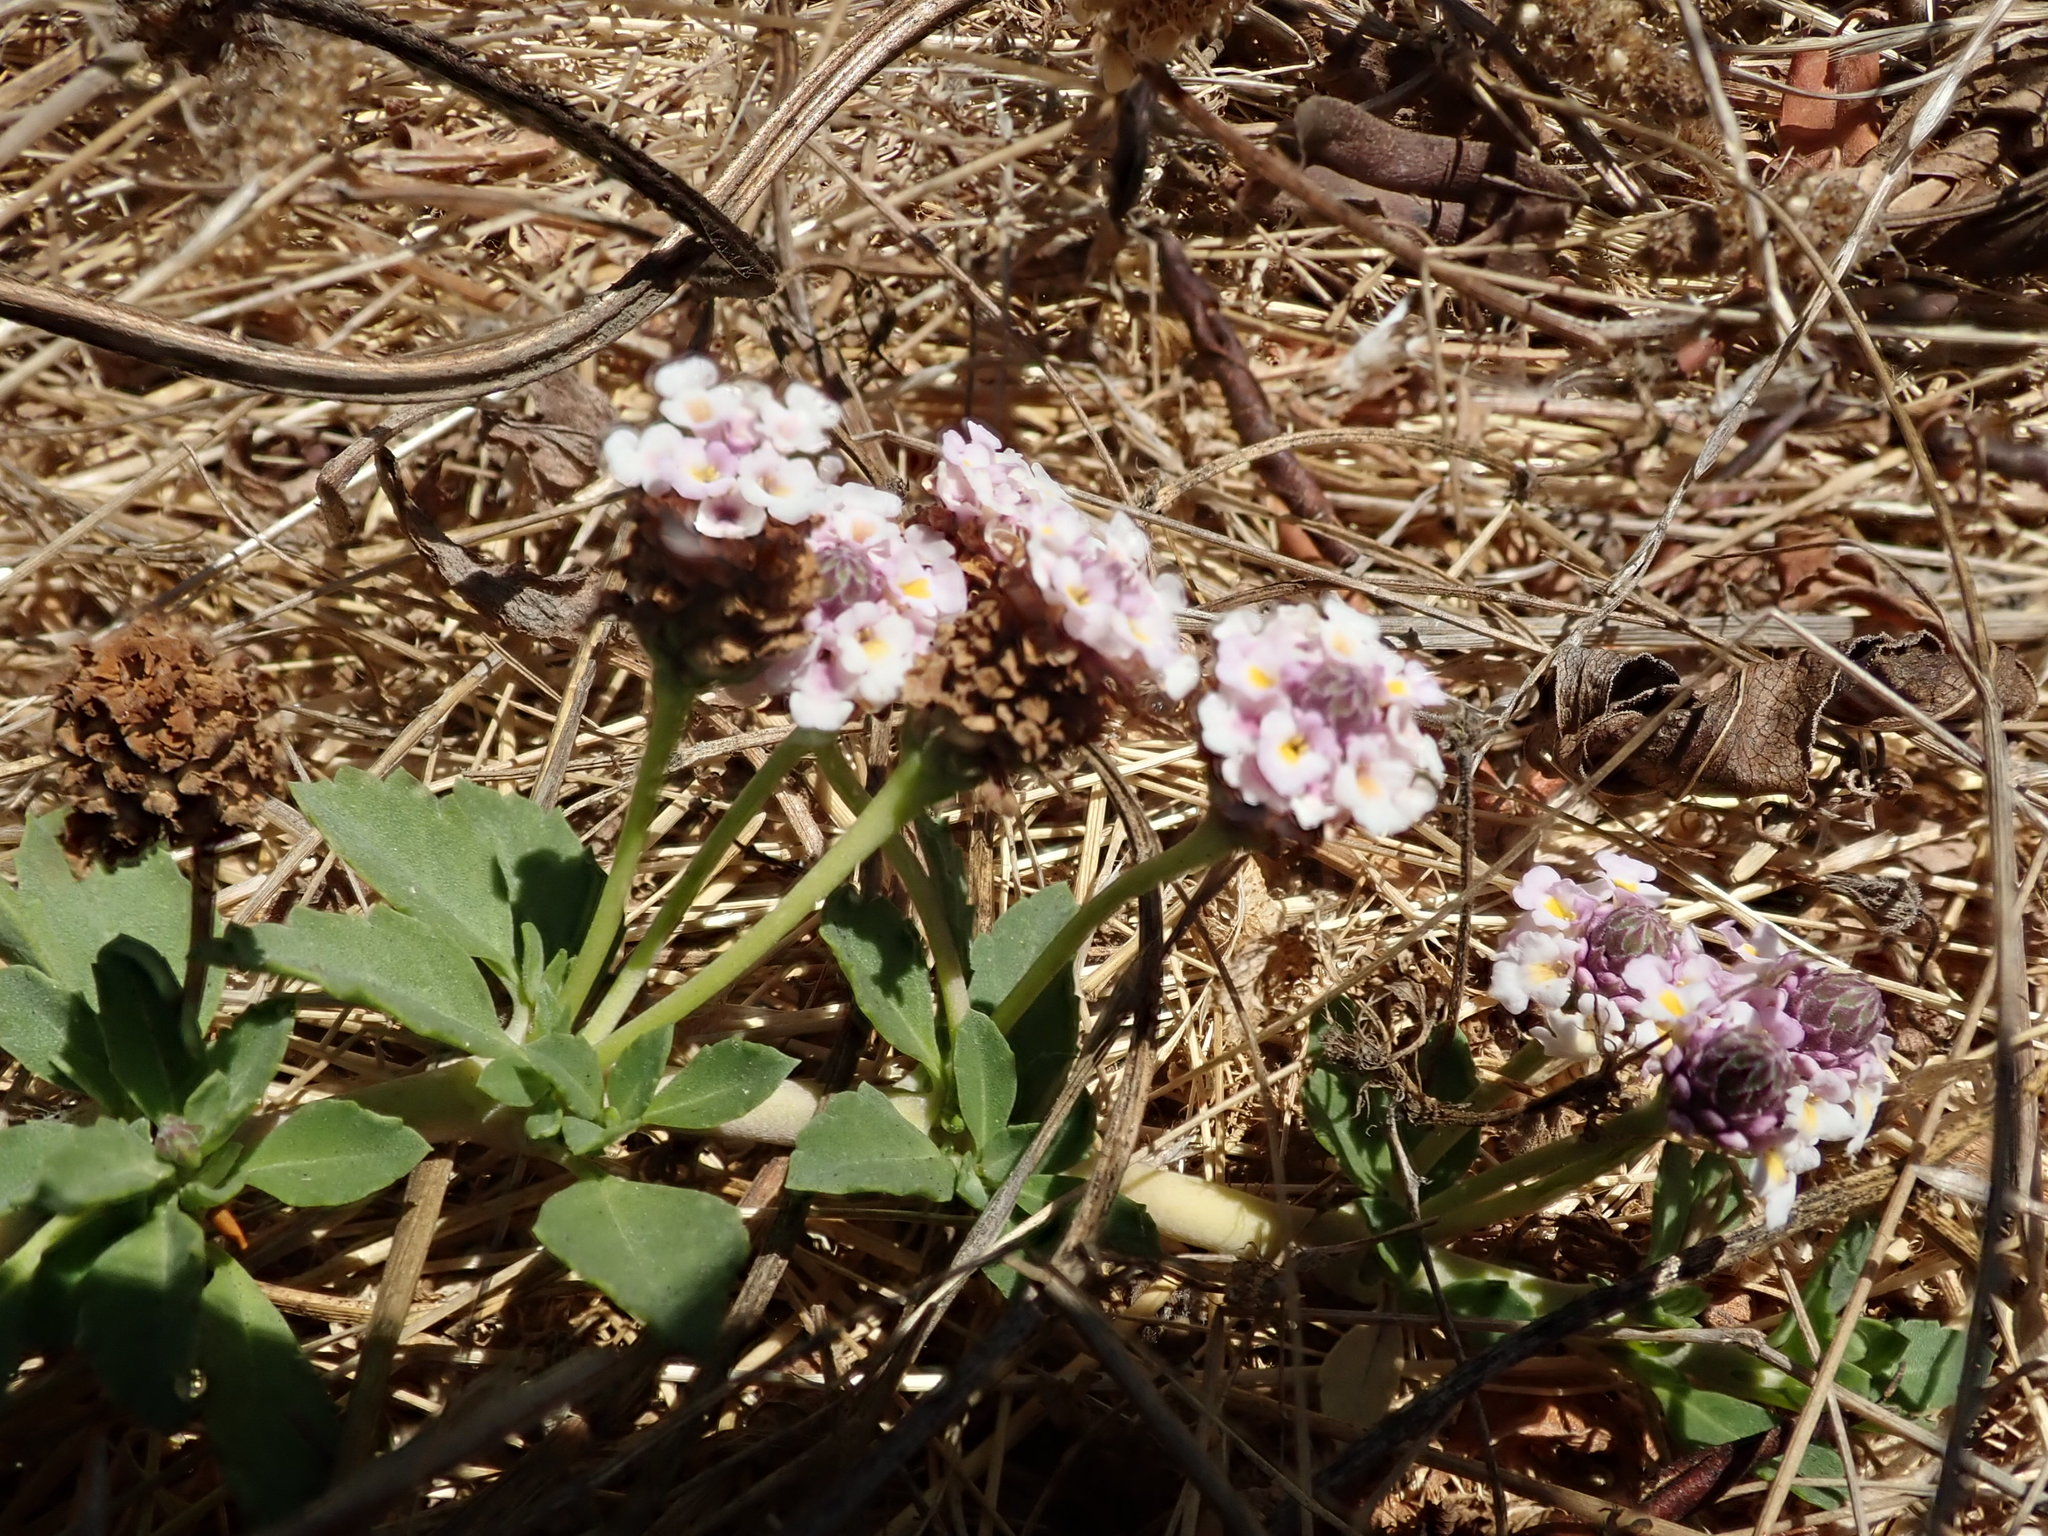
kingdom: Plantae
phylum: Tracheophyta
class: Magnoliopsida
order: Lamiales
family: Verbenaceae
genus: Phyla
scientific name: Phyla nodiflora
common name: Frogfruit
